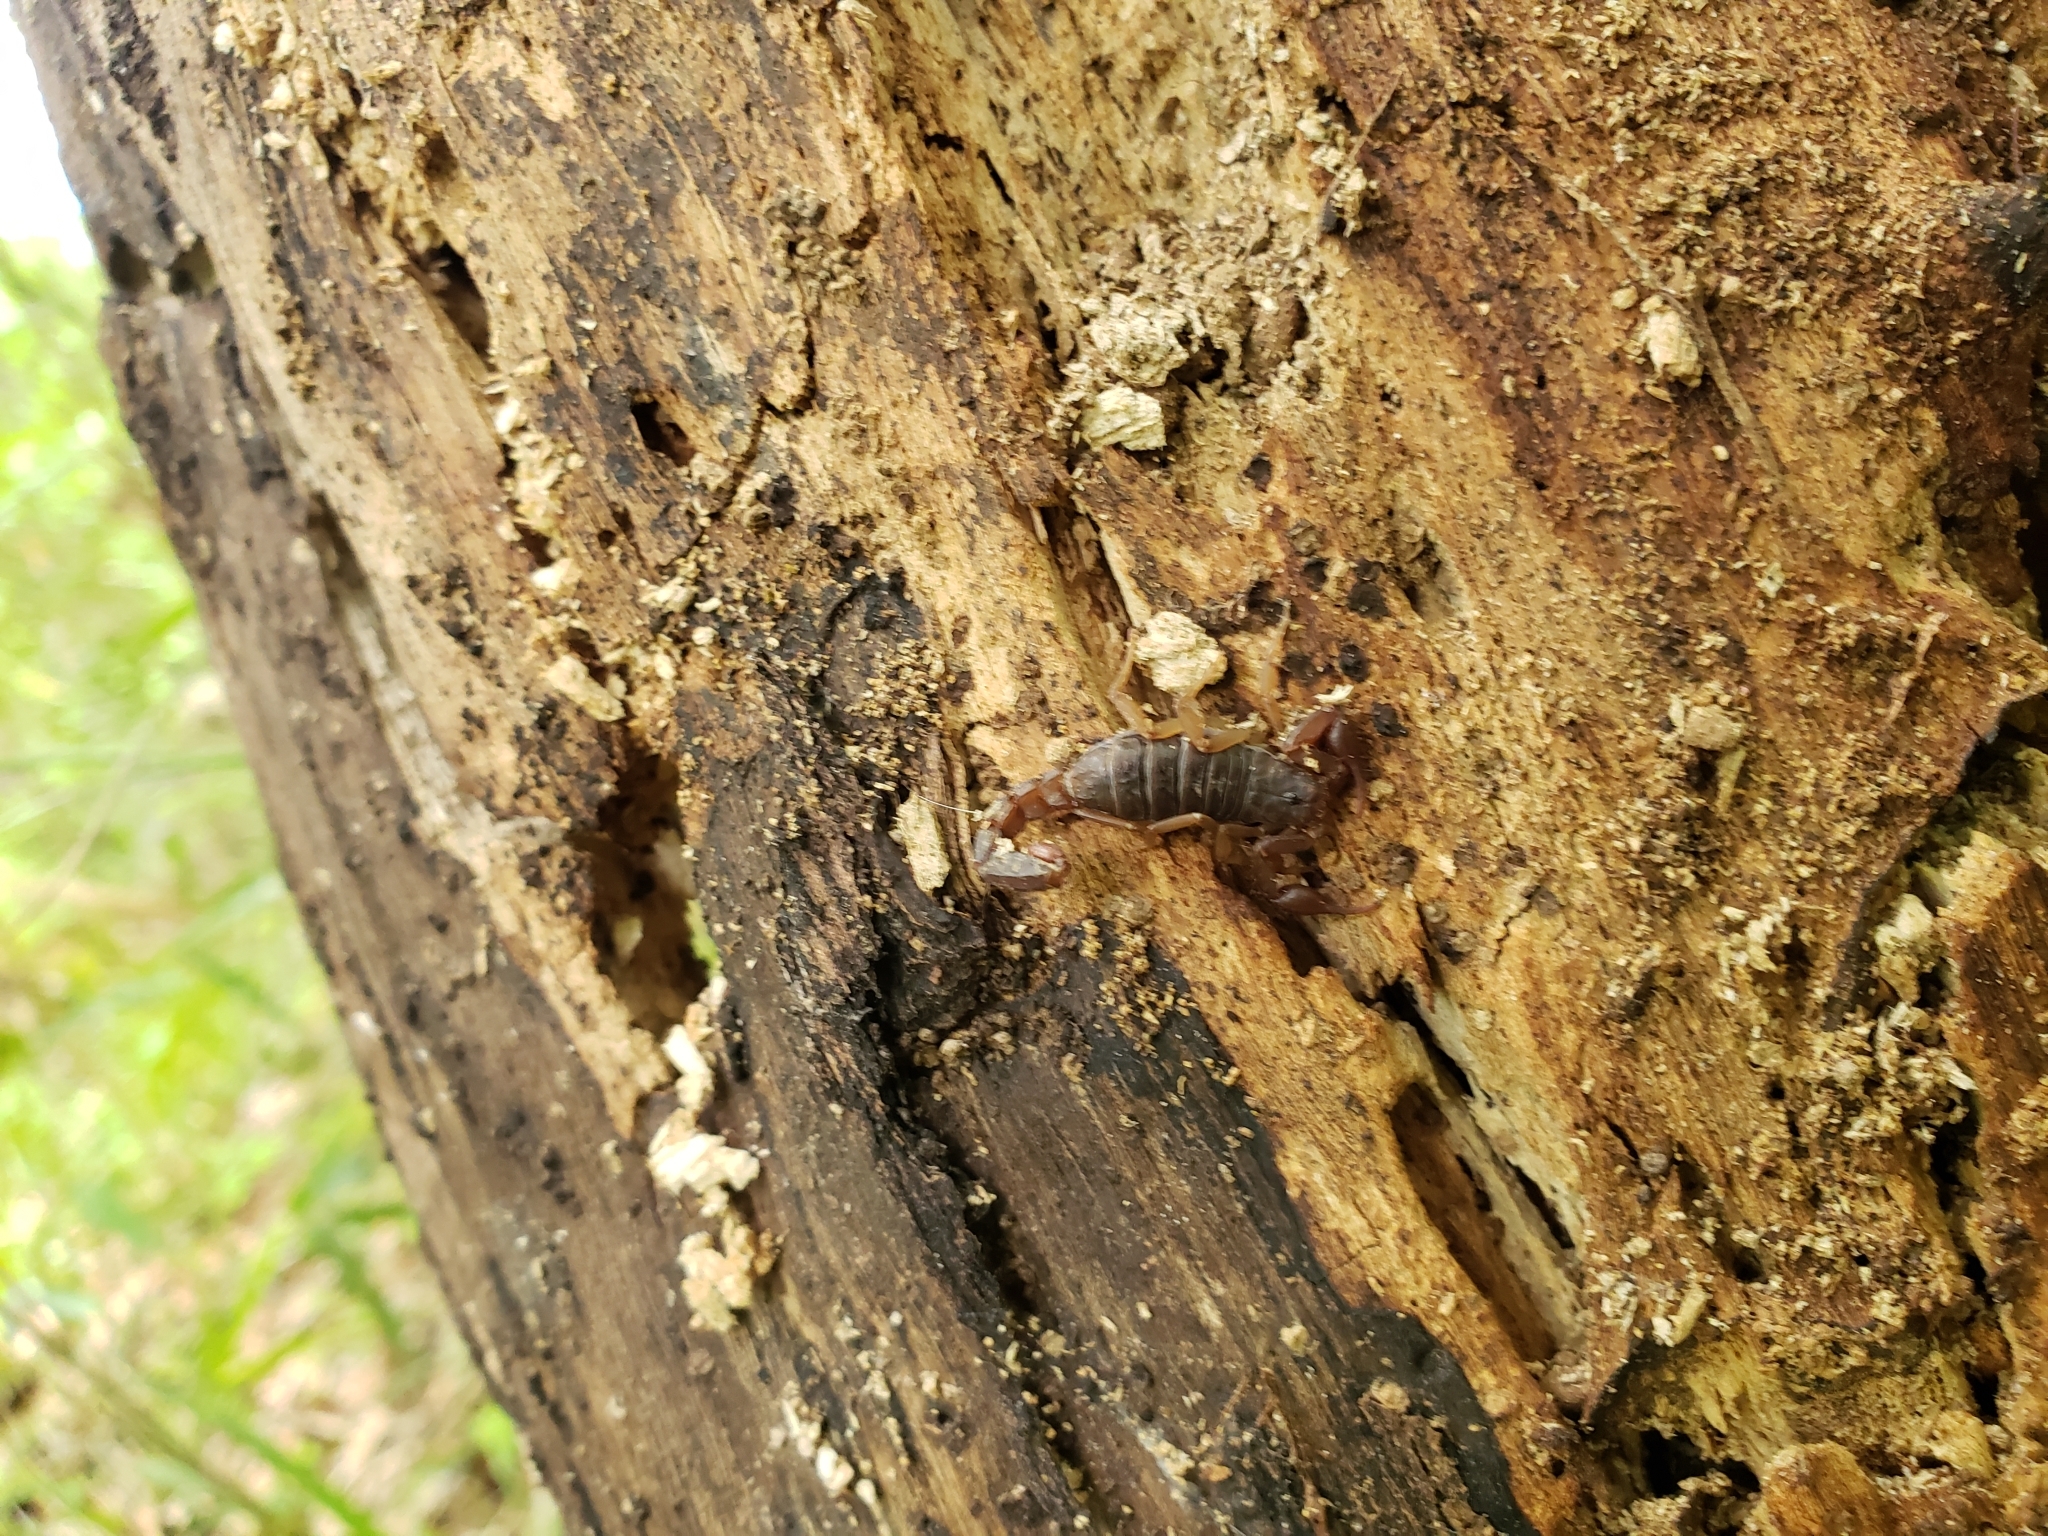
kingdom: Animalia
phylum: Arthropoda
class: Arachnida
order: Scorpiones
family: Vaejovidae
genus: Vaejovis
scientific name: Vaejovis carolinianus
